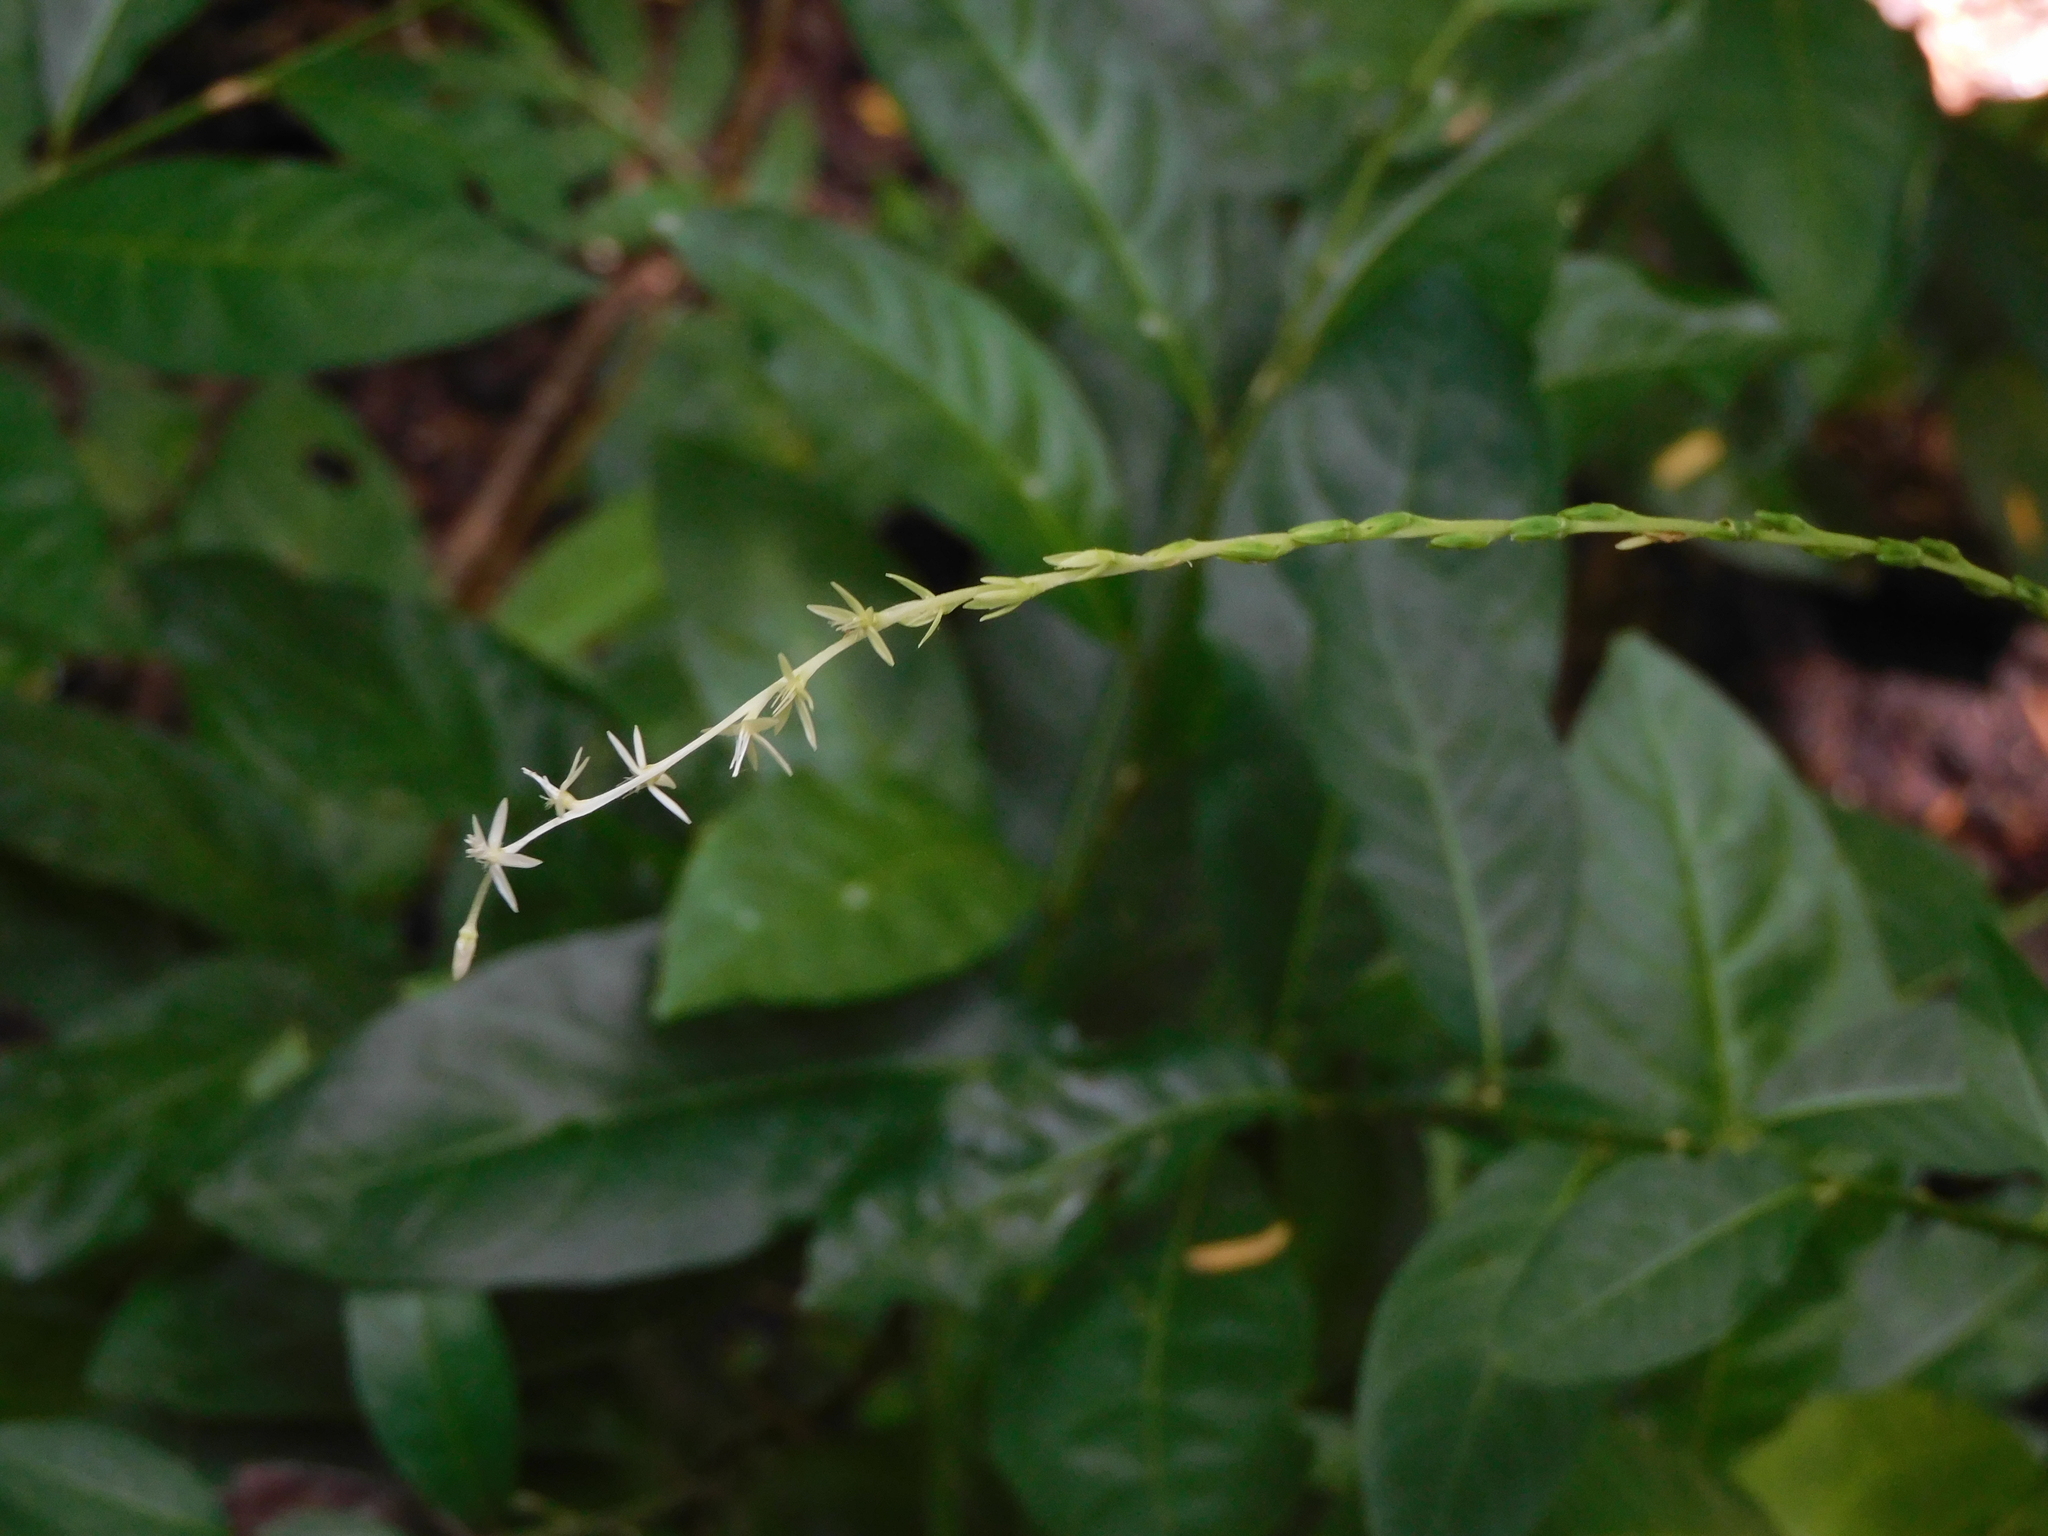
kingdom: Plantae
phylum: Tracheophyta
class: Magnoliopsida
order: Caryophyllales
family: Phytolaccaceae
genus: Petiveria
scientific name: Petiveria alliacea
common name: Garlicweed
